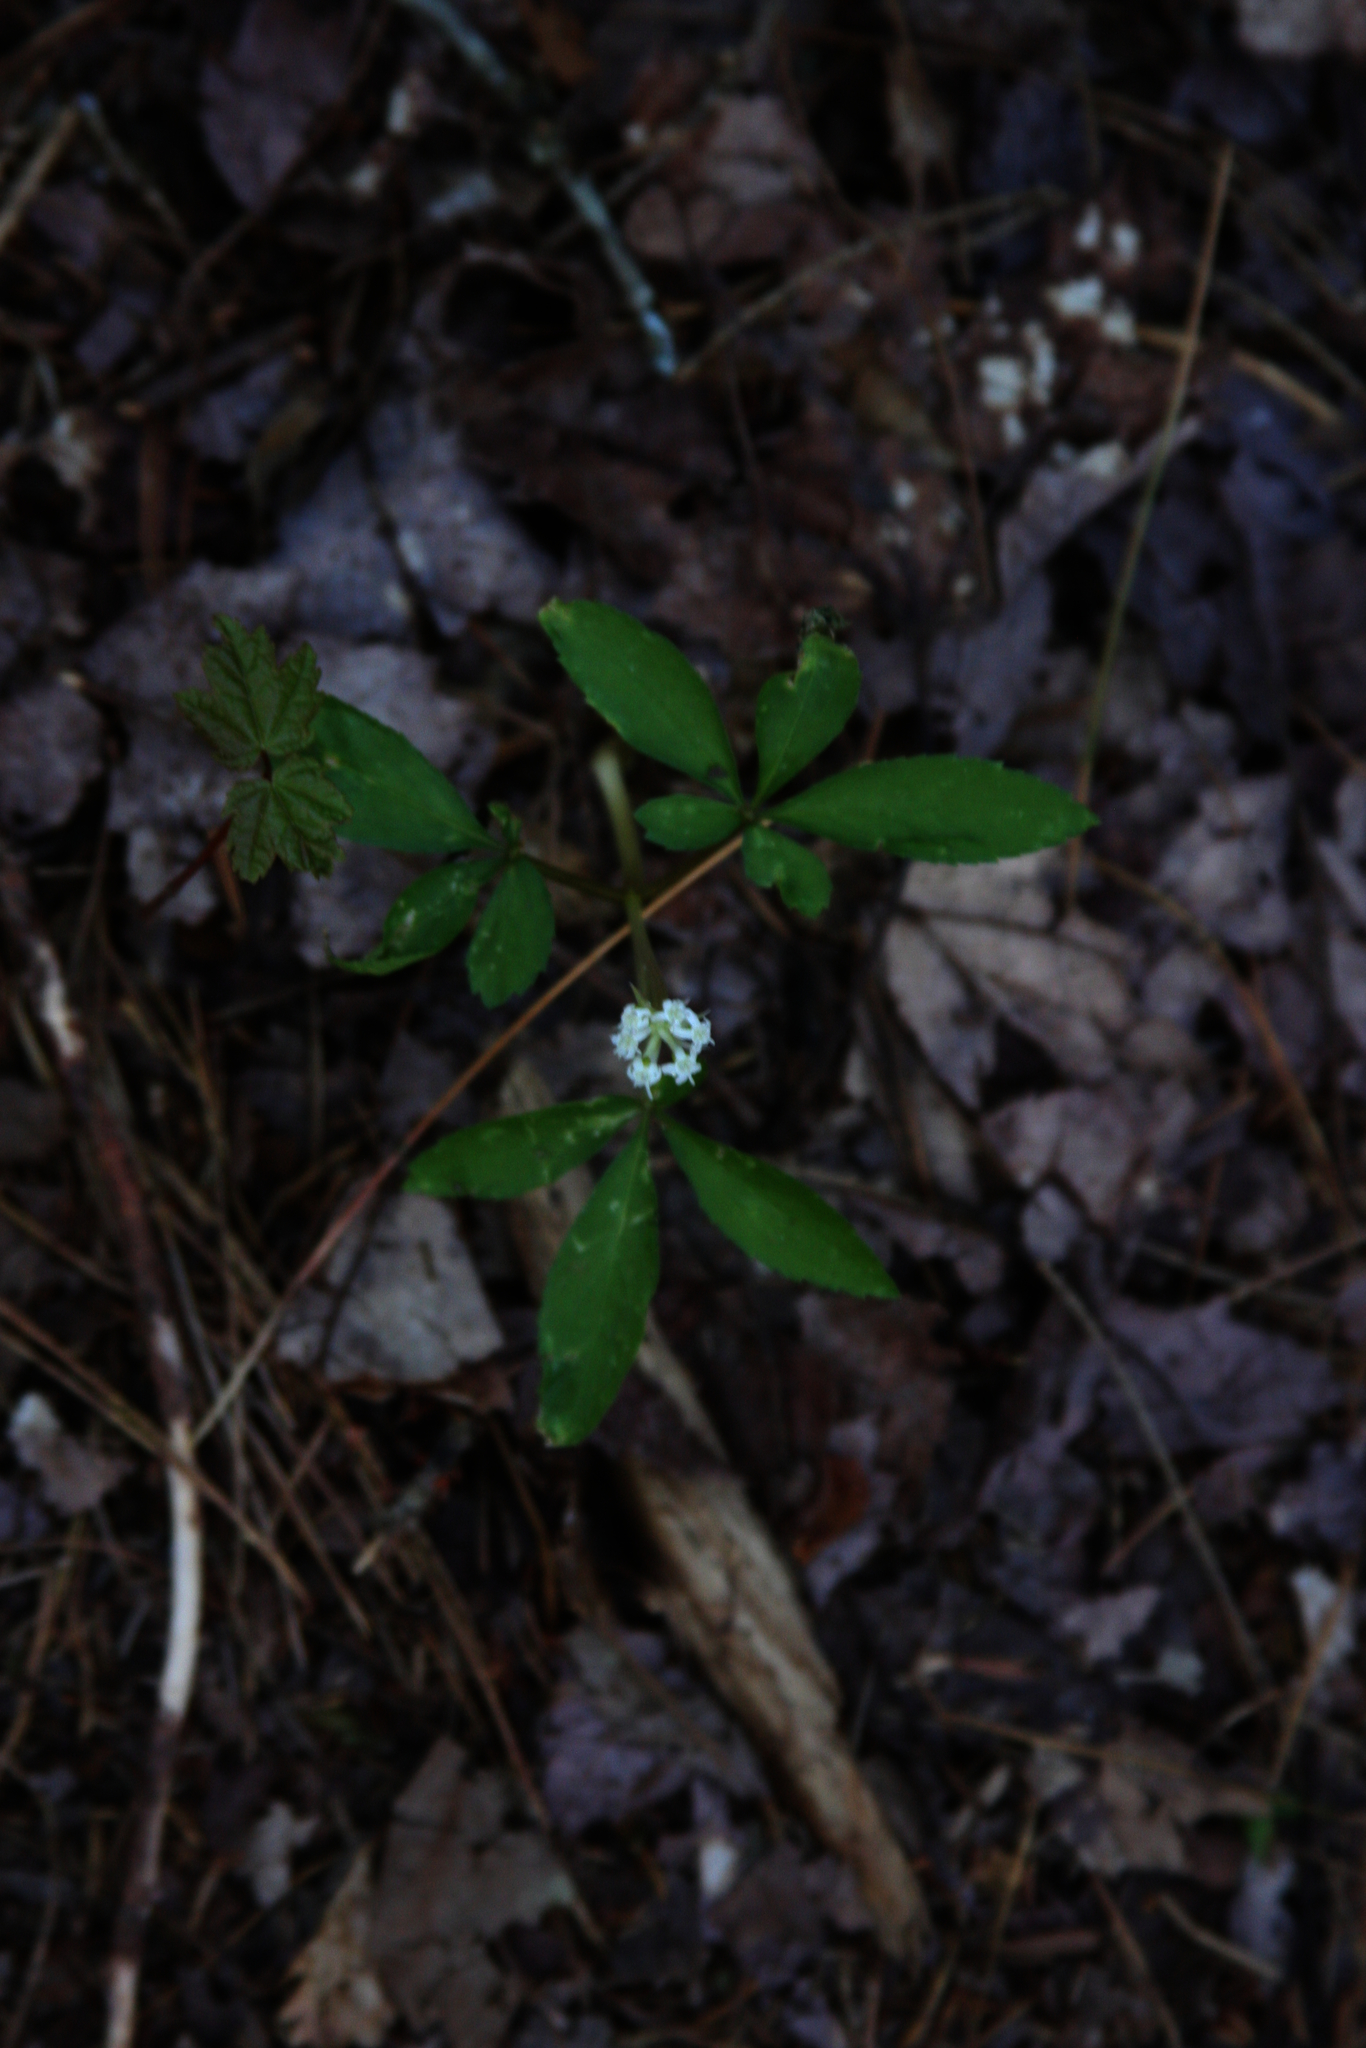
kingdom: Plantae
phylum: Tracheophyta
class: Magnoliopsida
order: Apiales
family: Araliaceae
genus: Panax
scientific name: Panax trifolius
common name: Dwarf ginseng
